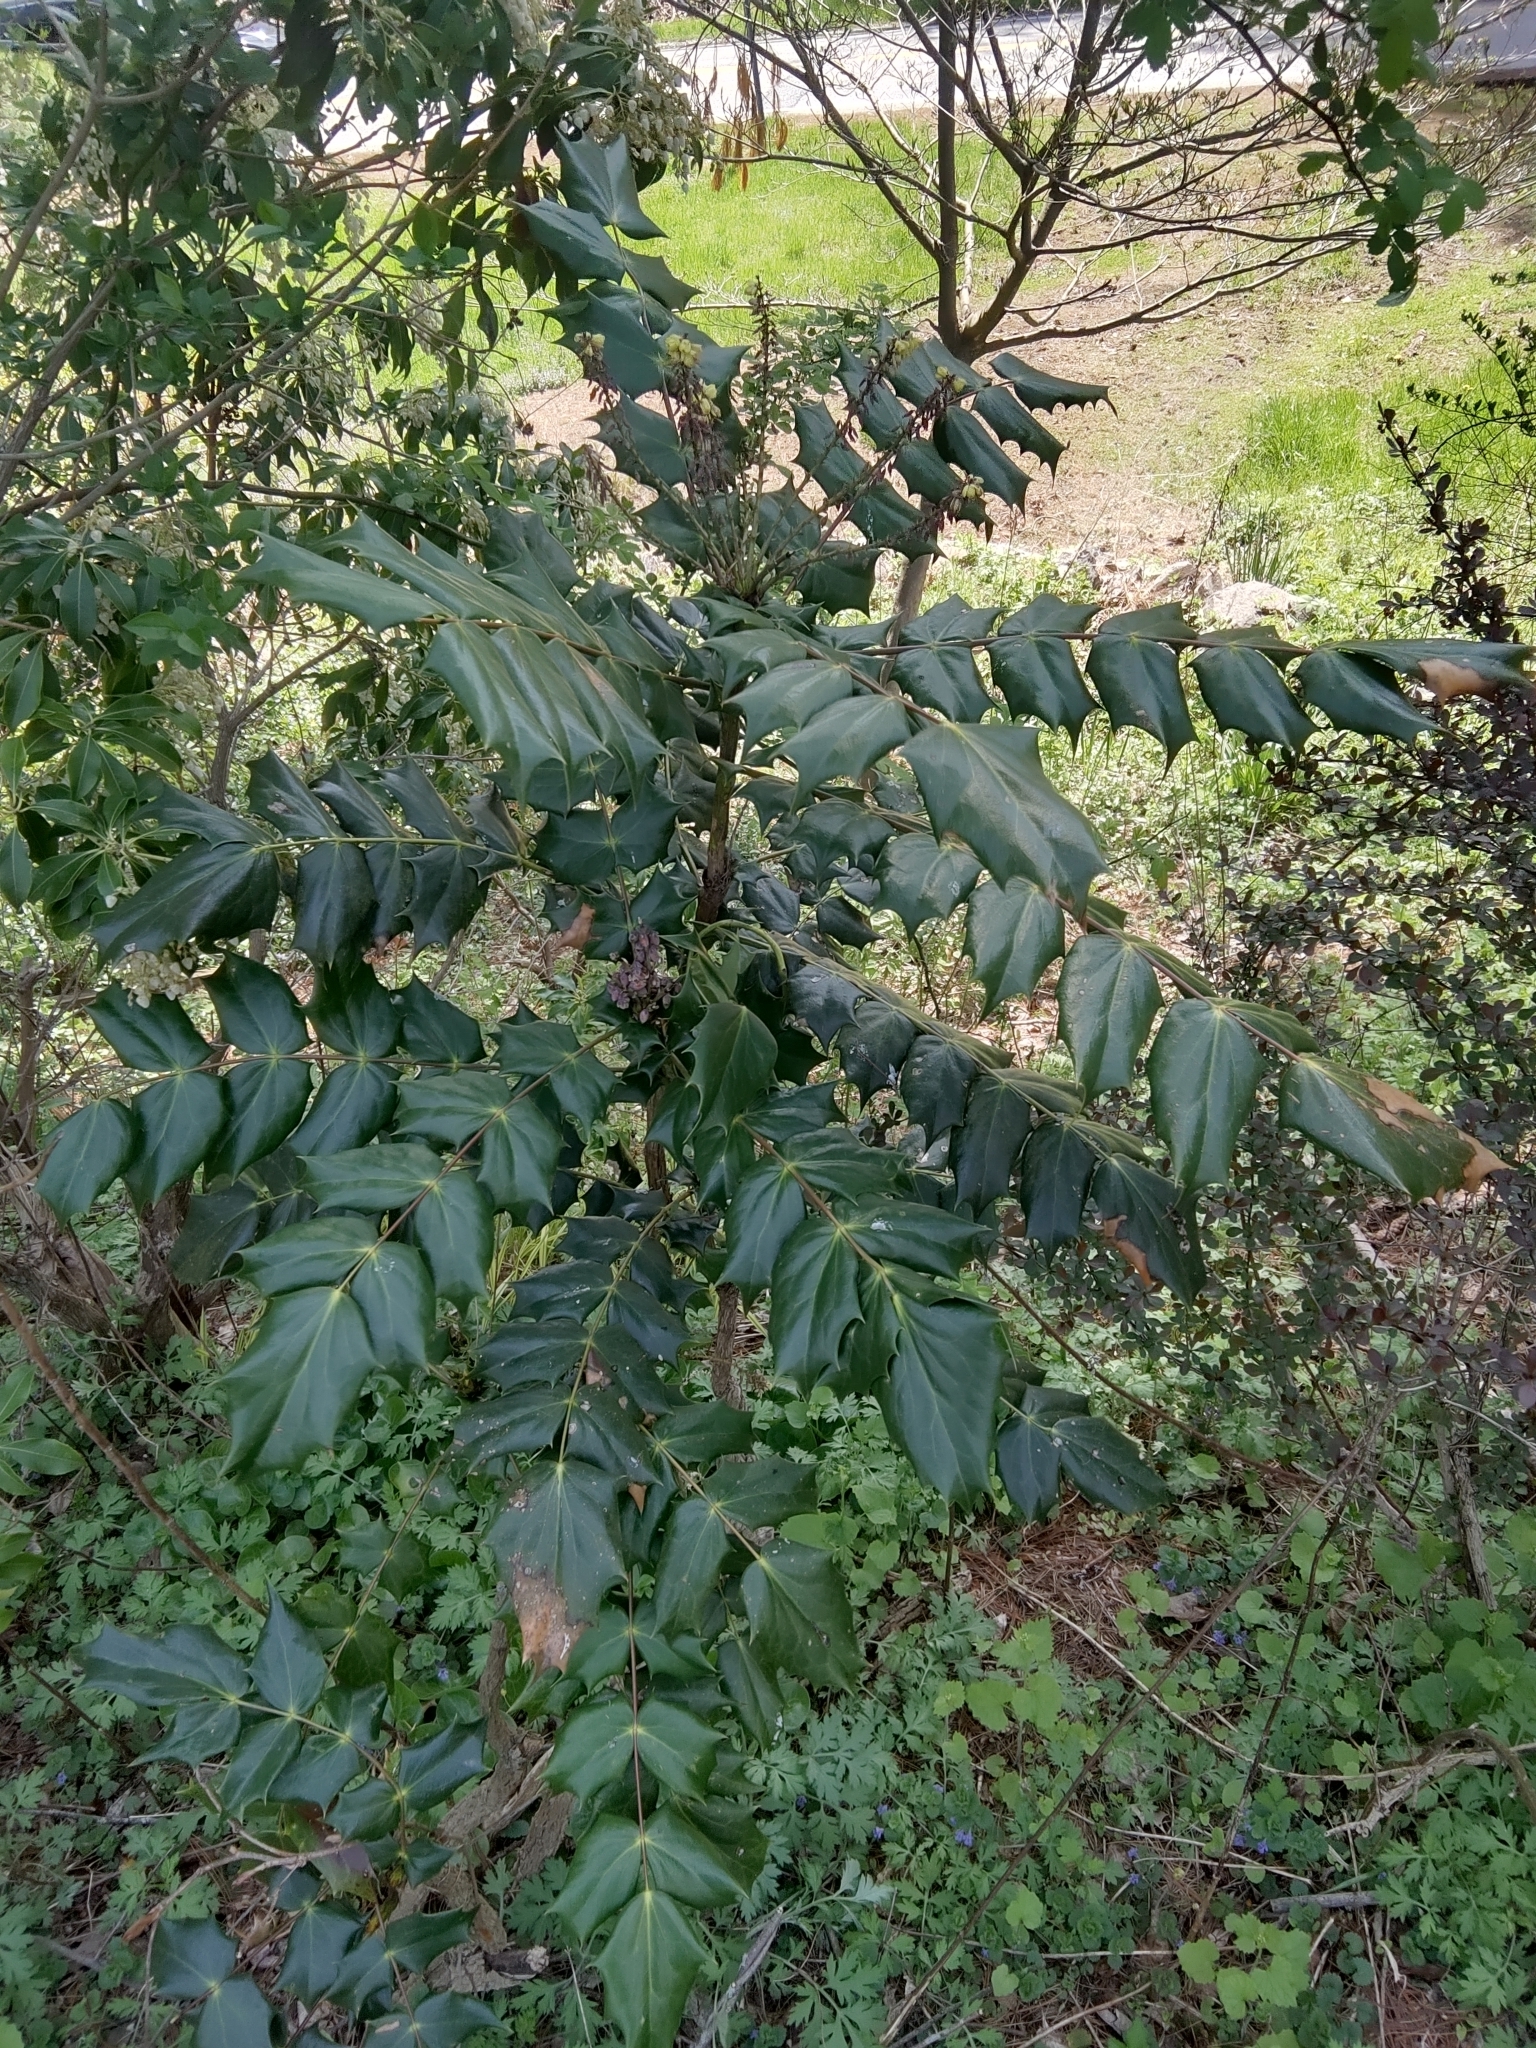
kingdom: Plantae
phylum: Tracheophyta
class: Magnoliopsida
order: Ranunculales
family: Berberidaceae
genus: Mahonia
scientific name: Mahonia bealei
